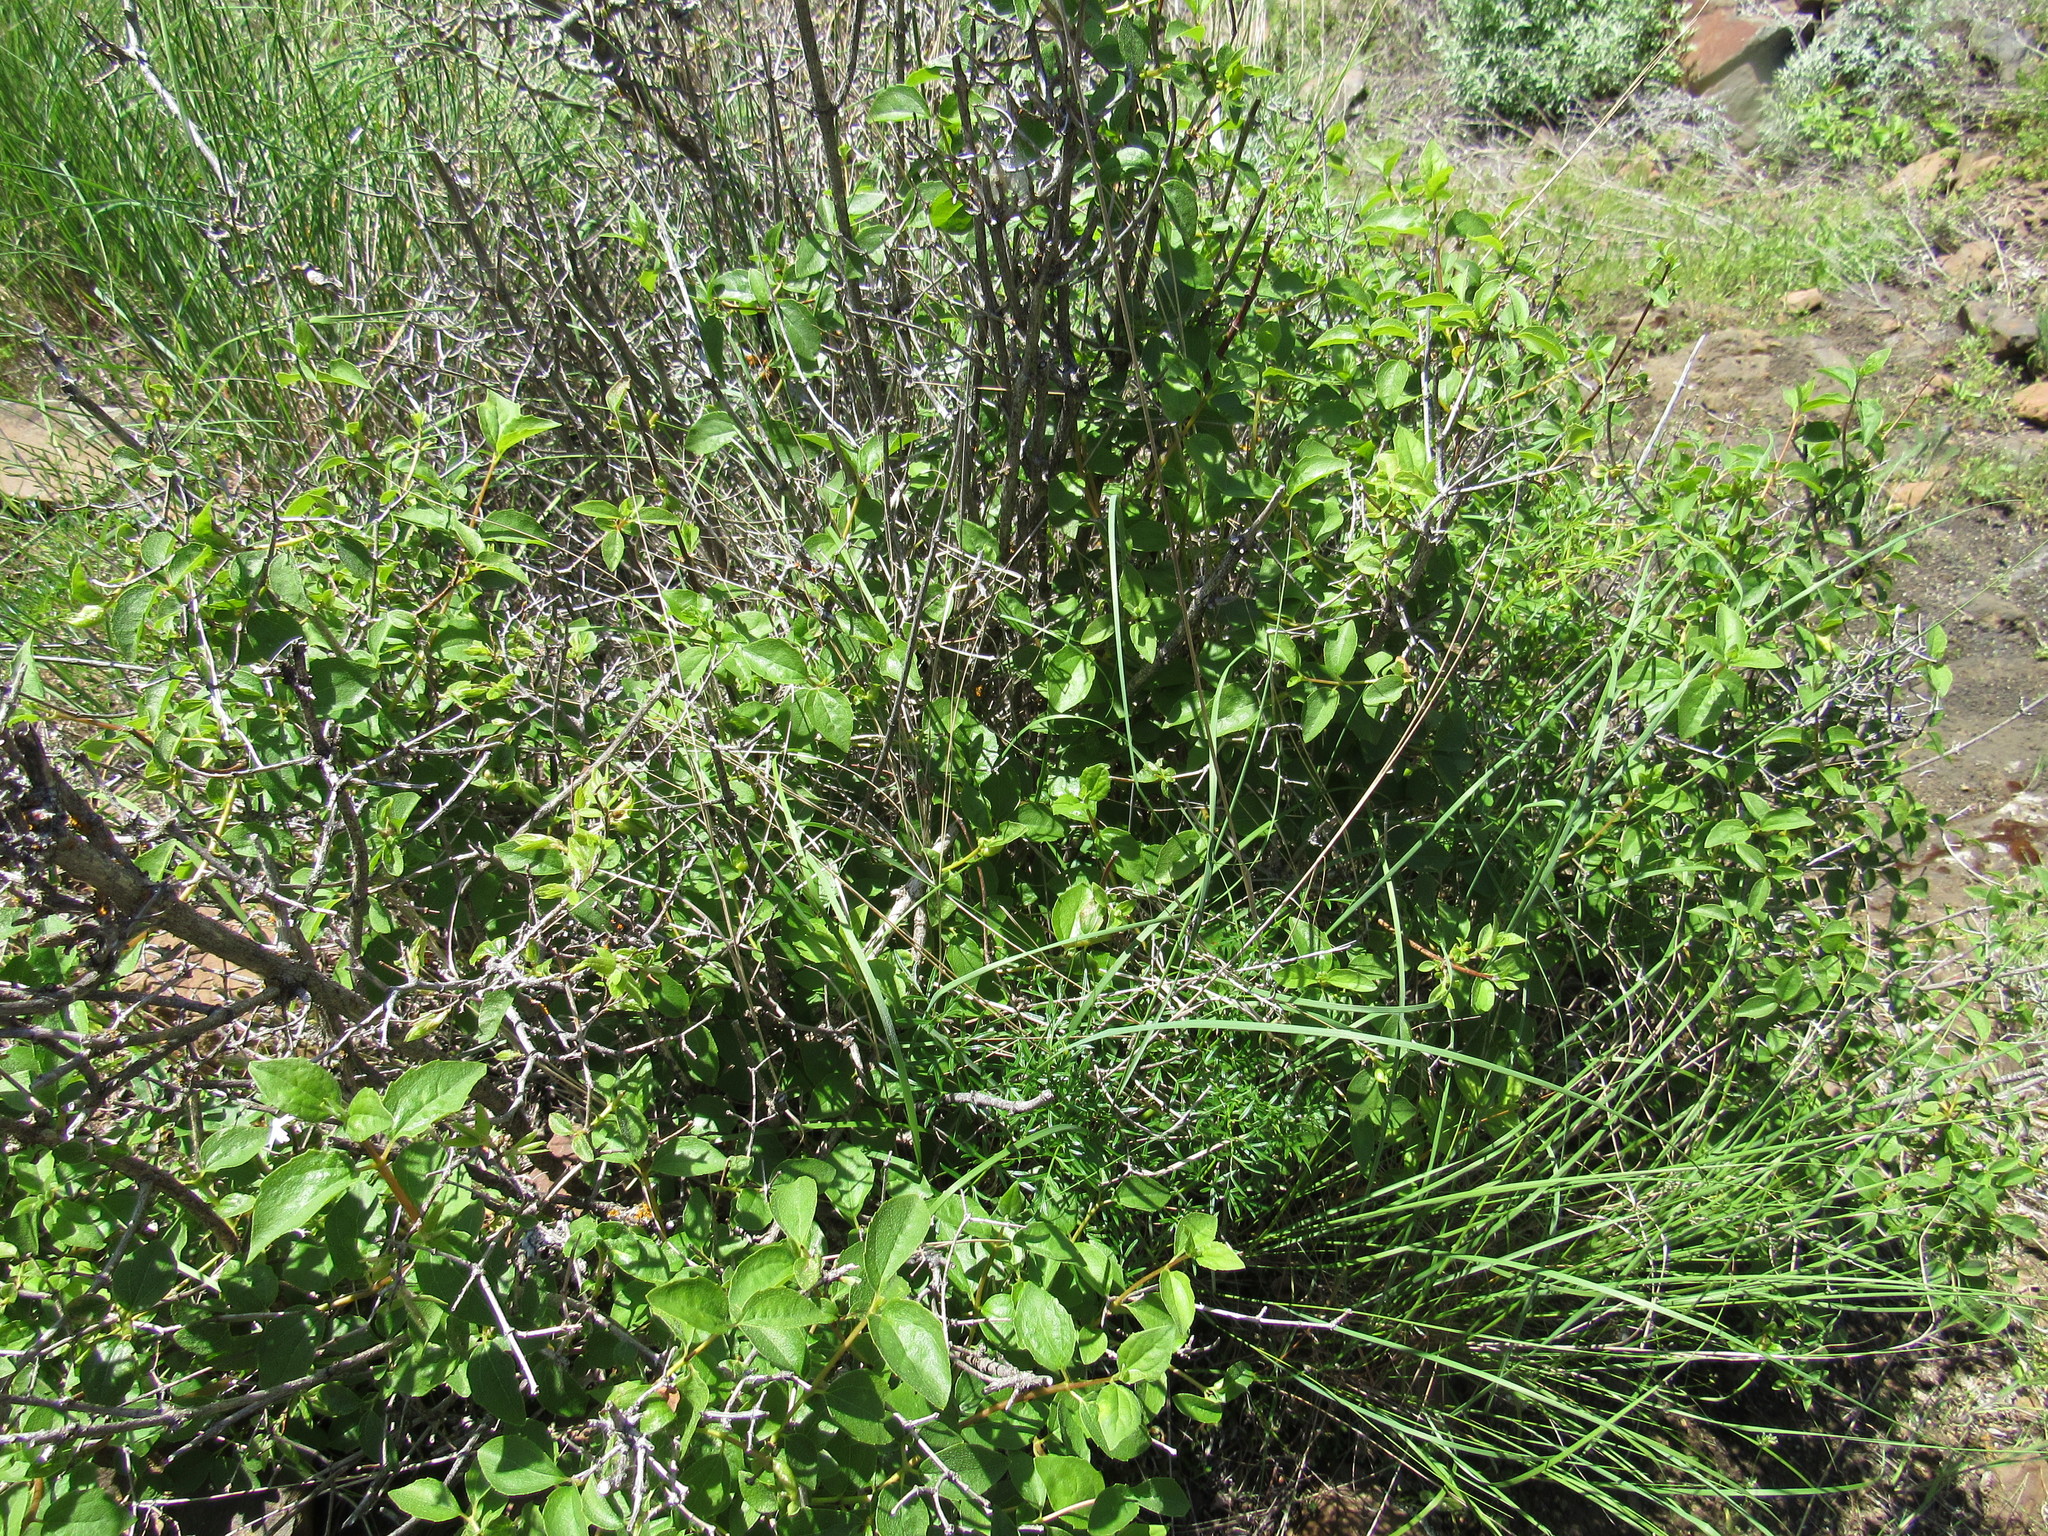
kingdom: Plantae
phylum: Tracheophyta
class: Magnoliopsida
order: Cornales
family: Hydrangeaceae
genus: Philadelphus
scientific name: Philadelphus lewisii
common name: Lewis's mock orange
